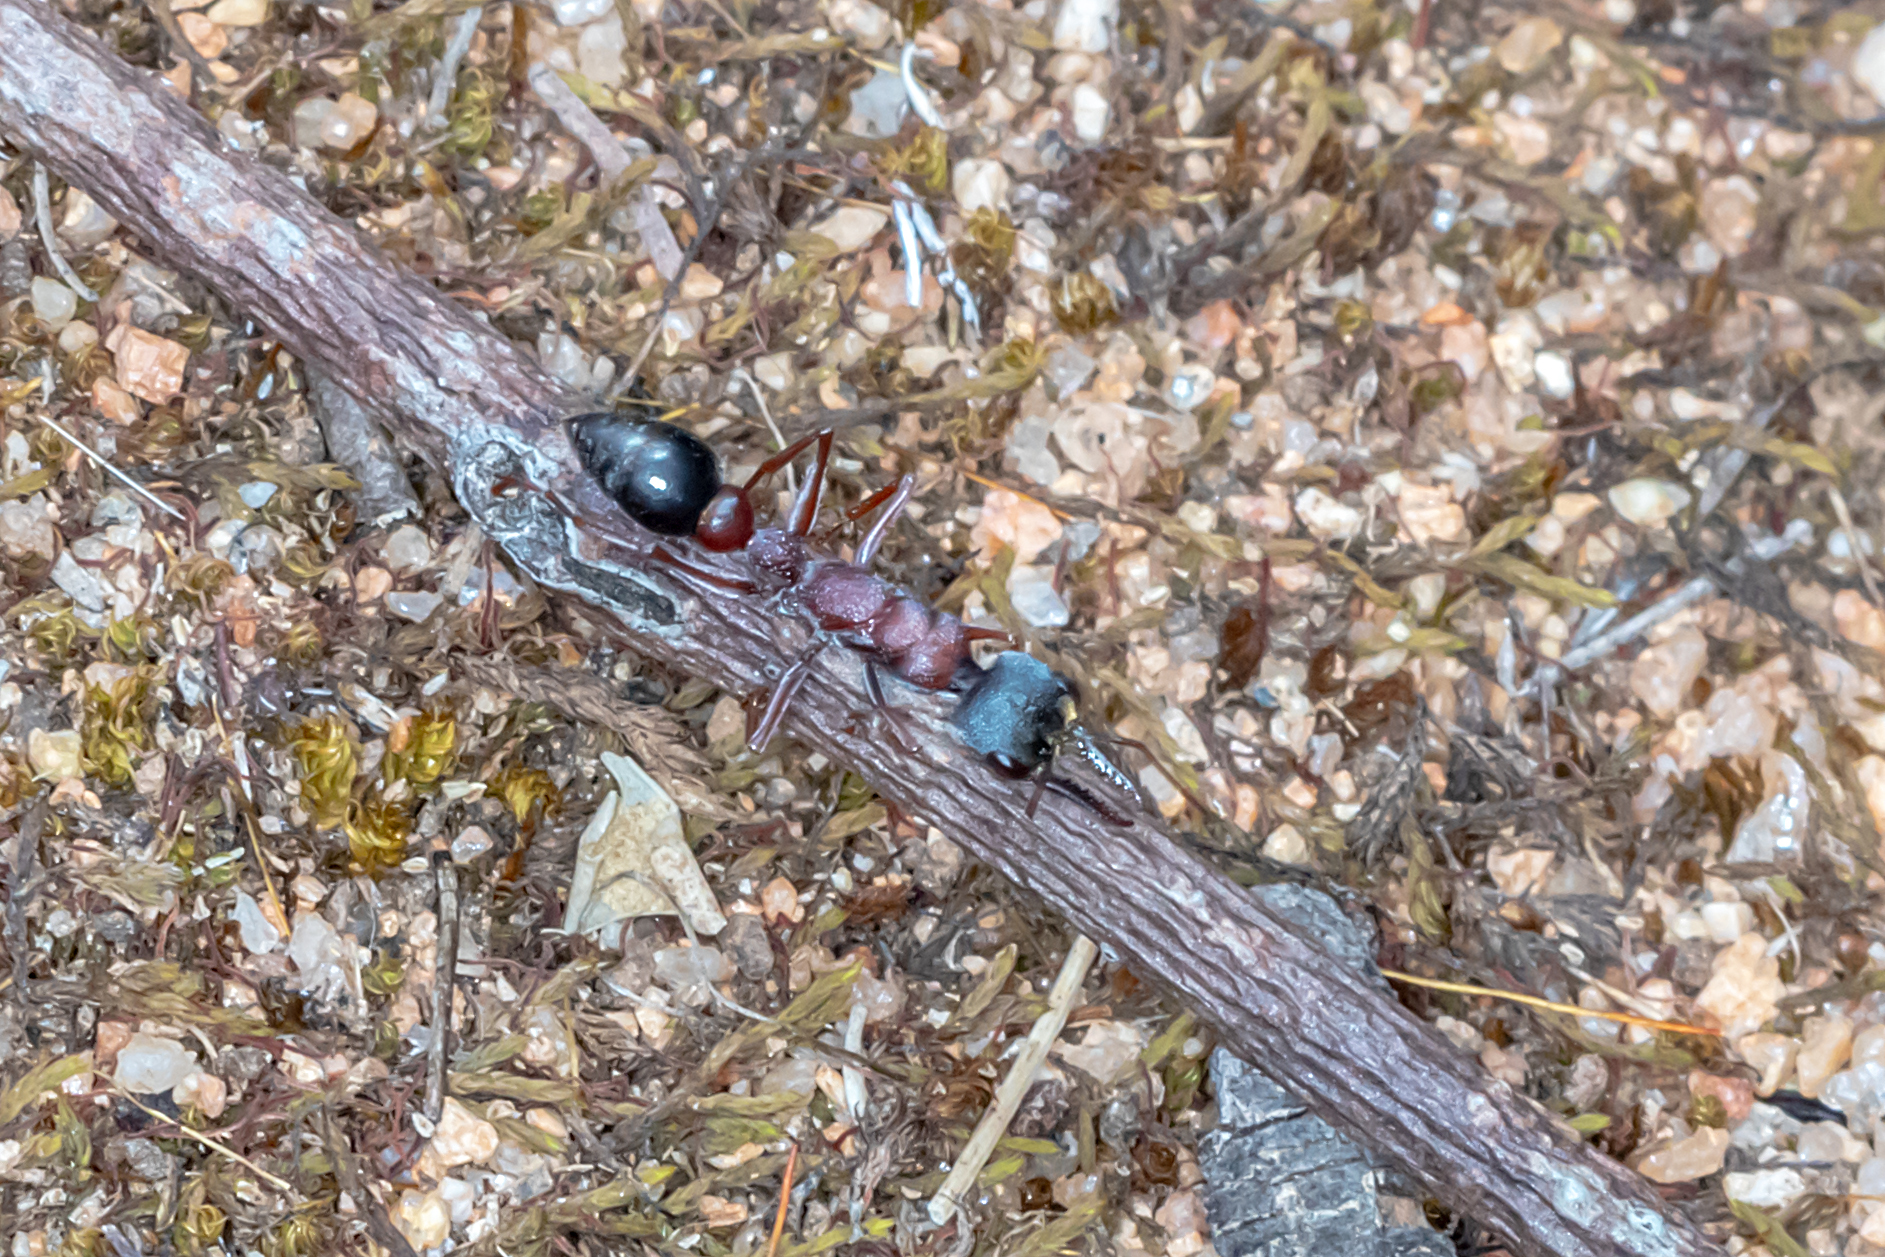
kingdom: Animalia
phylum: Arthropoda
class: Insecta
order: Hymenoptera
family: Formicidae
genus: Myrmecia
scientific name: Myrmecia varians
